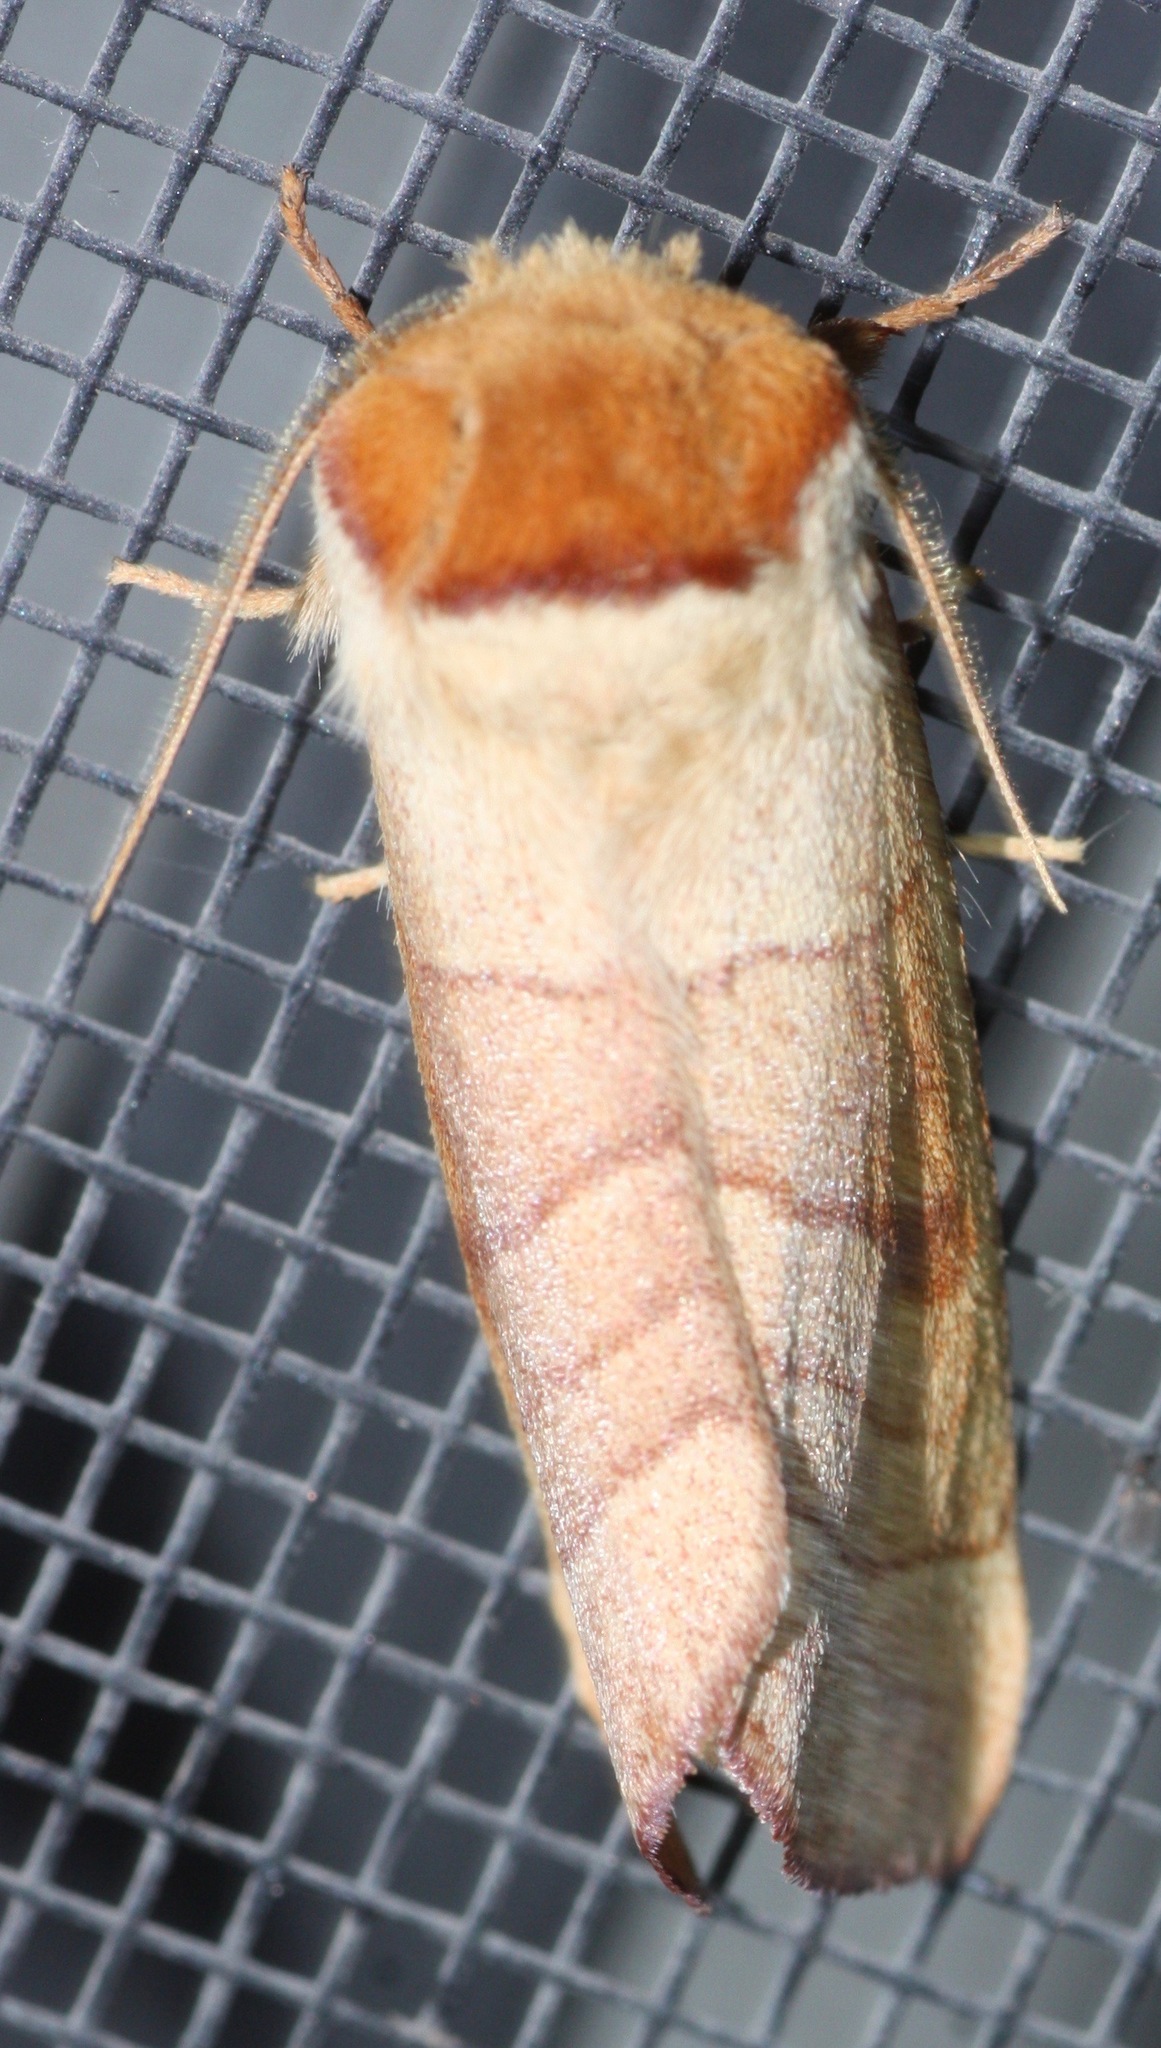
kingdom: Animalia
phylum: Arthropoda
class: Insecta
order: Lepidoptera
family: Notodontidae
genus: Datana
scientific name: Datana perspicua
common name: Spotted datana
